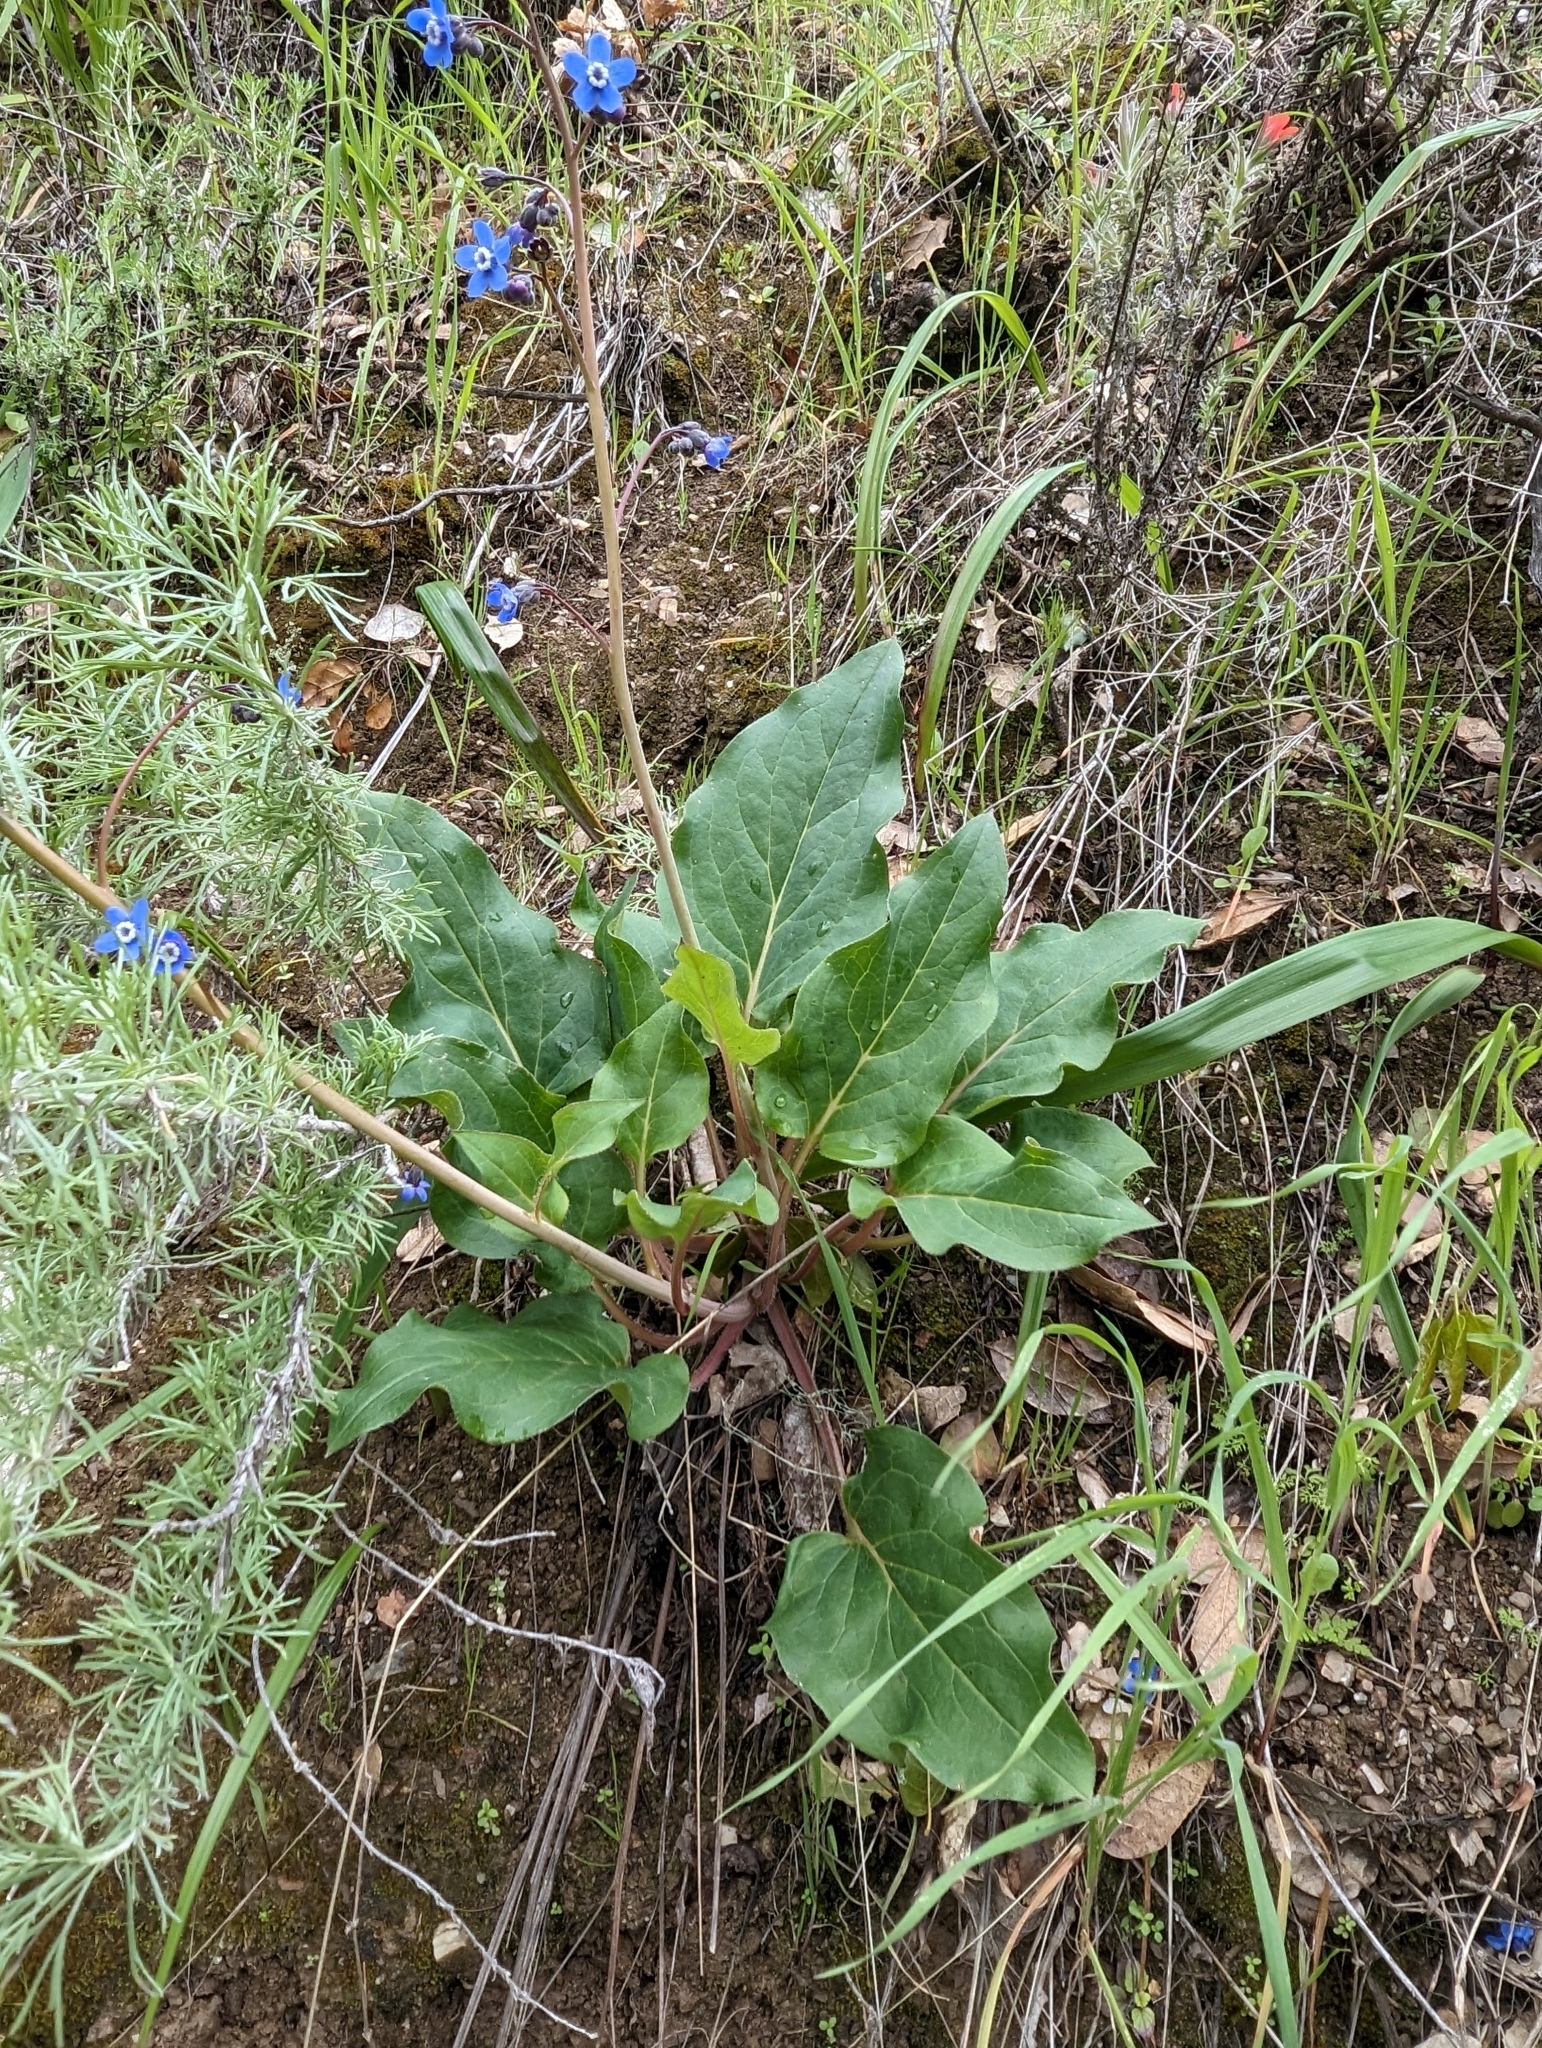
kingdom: Plantae
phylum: Tracheophyta
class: Magnoliopsida
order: Boraginales
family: Boraginaceae
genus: Adelinia
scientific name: Adelinia grande
